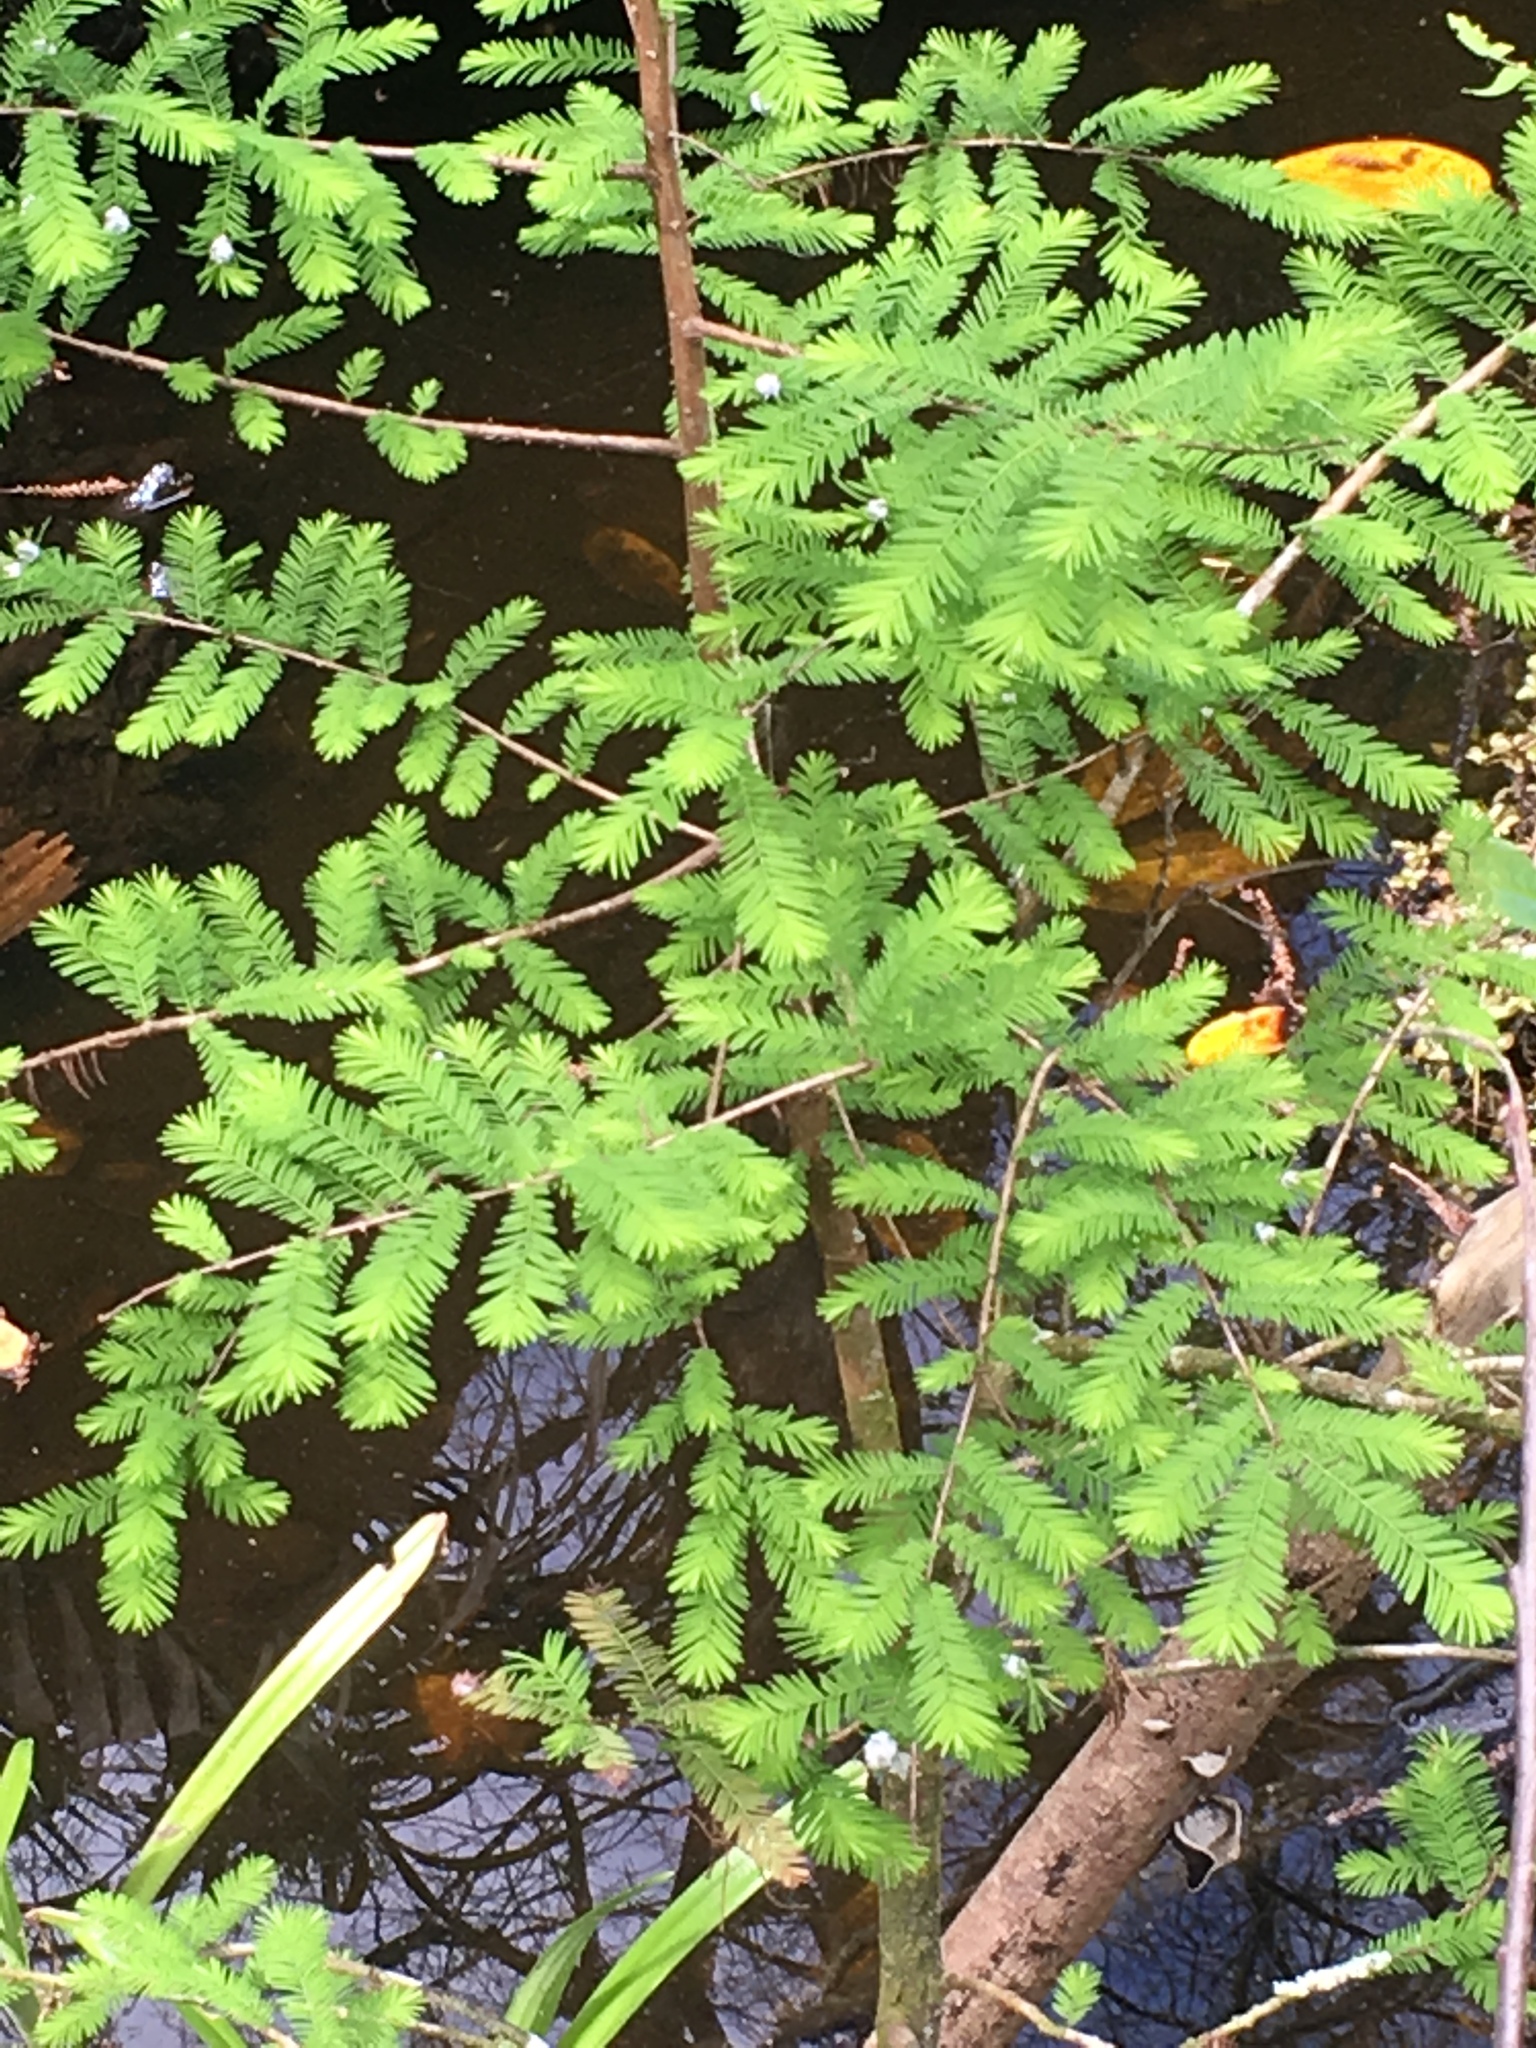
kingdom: Plantae
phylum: Tracheophyta
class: Pinopsida
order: Pinales
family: Cupressaceae
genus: Taxodium
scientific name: Taxodium distichum
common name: Bald cypress
